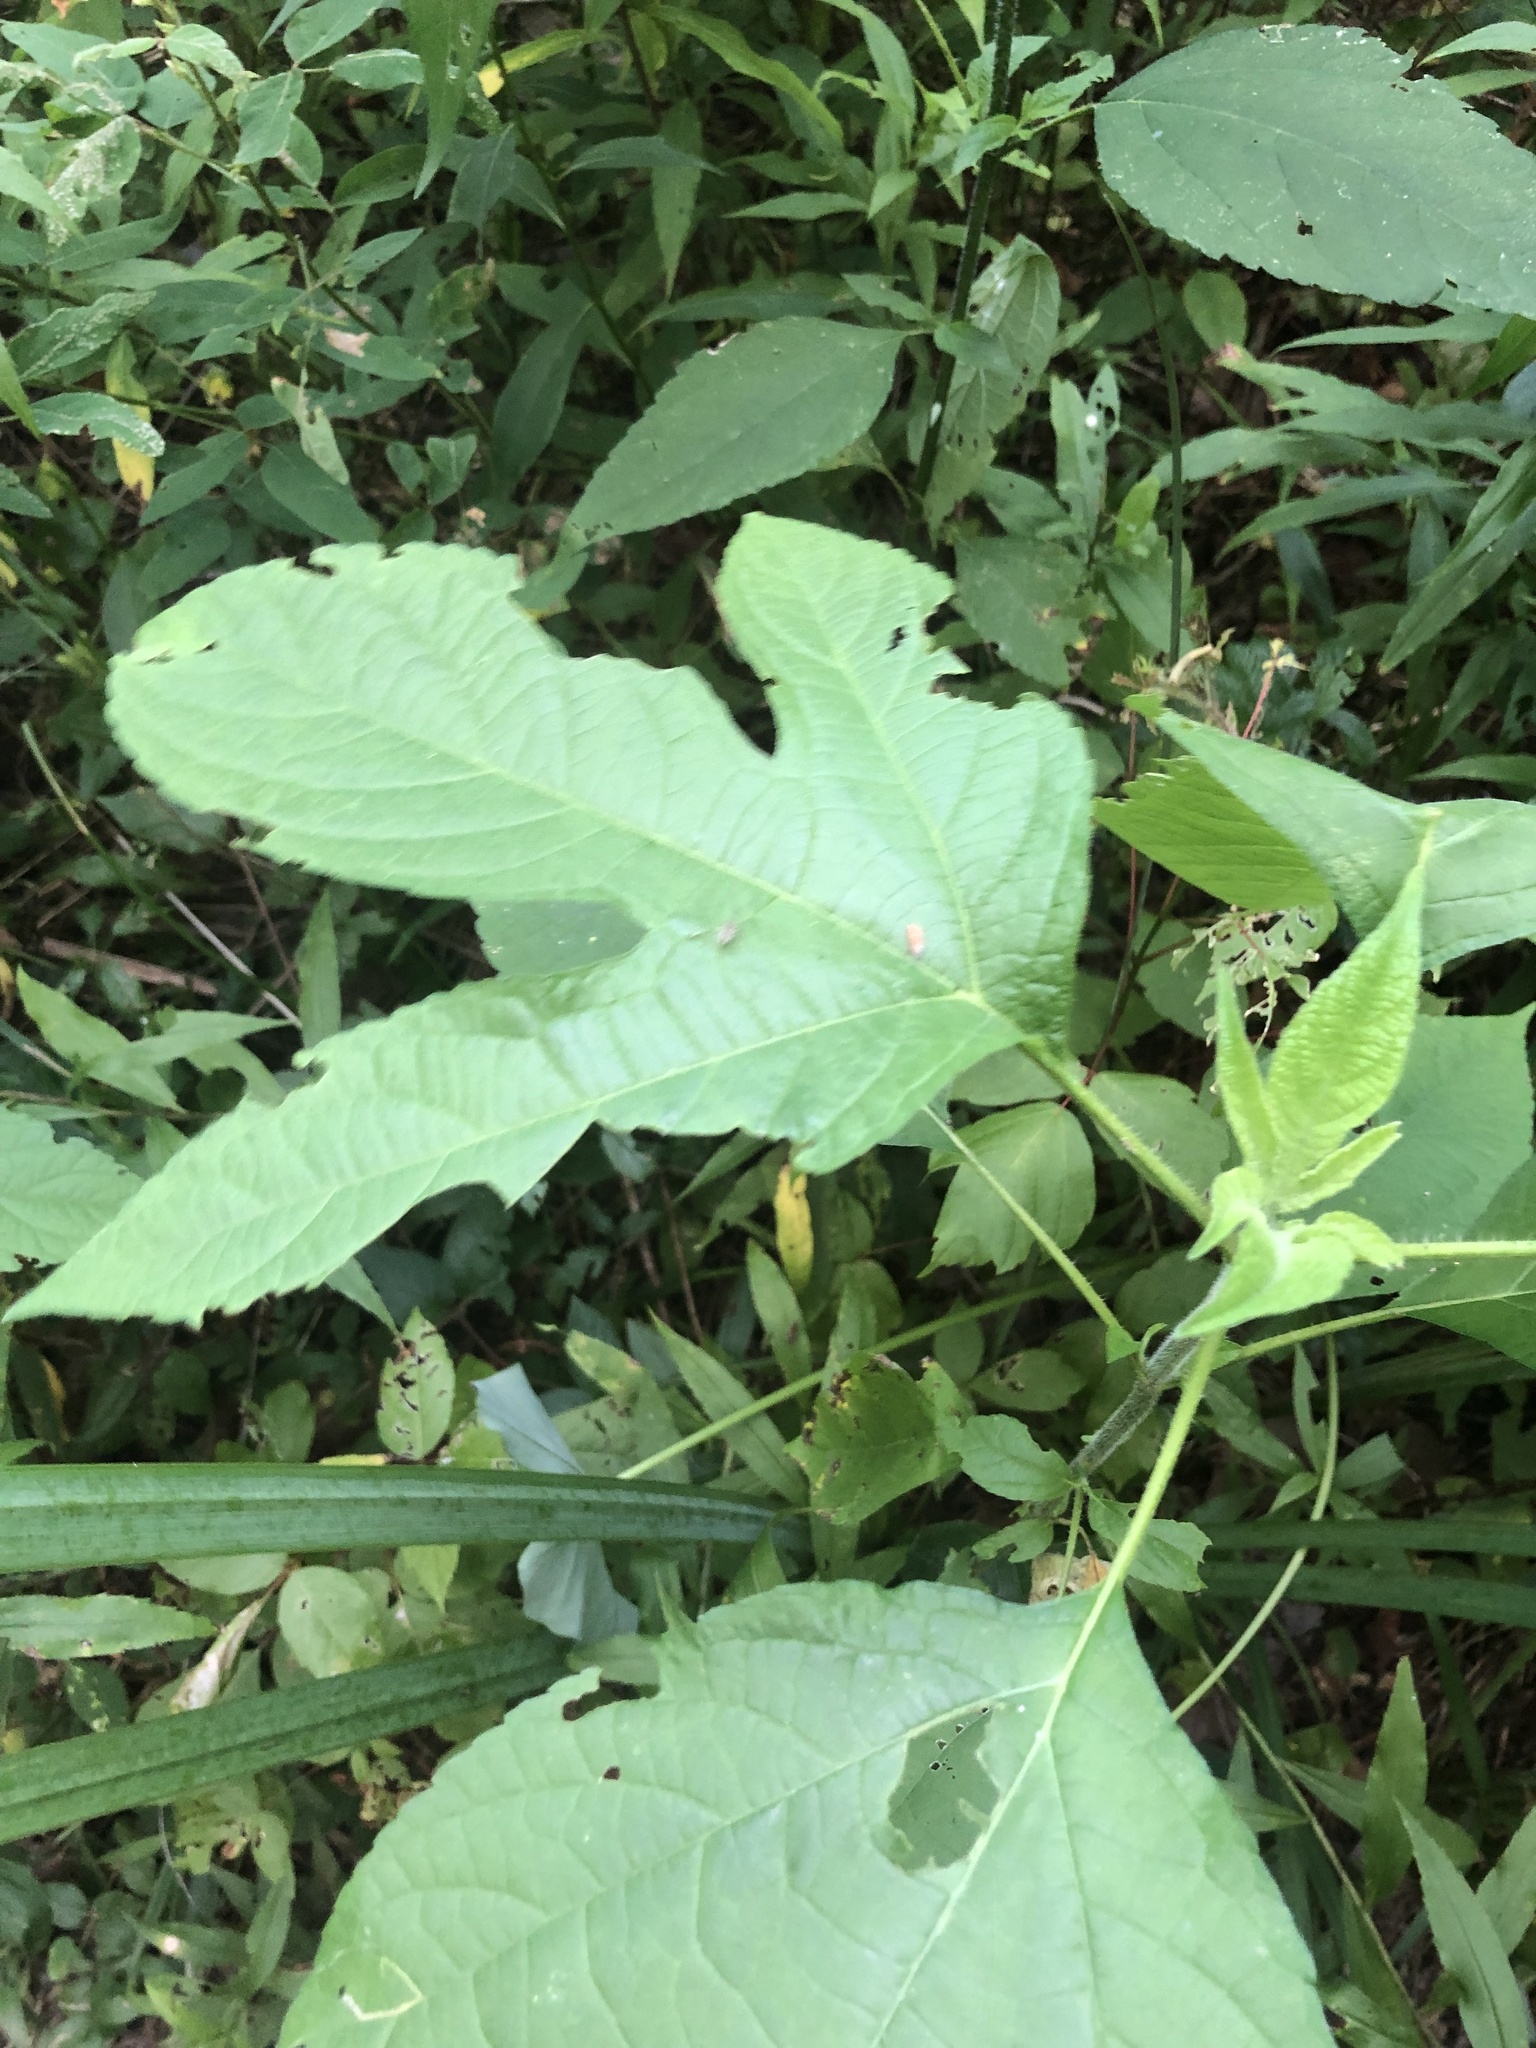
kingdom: Plantae
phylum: Tracheophyta
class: Magnoliopsida
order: Asterales
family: Asteraceae
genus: Ambrosia
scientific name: Ambrosia trifida
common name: Giant ragweed
